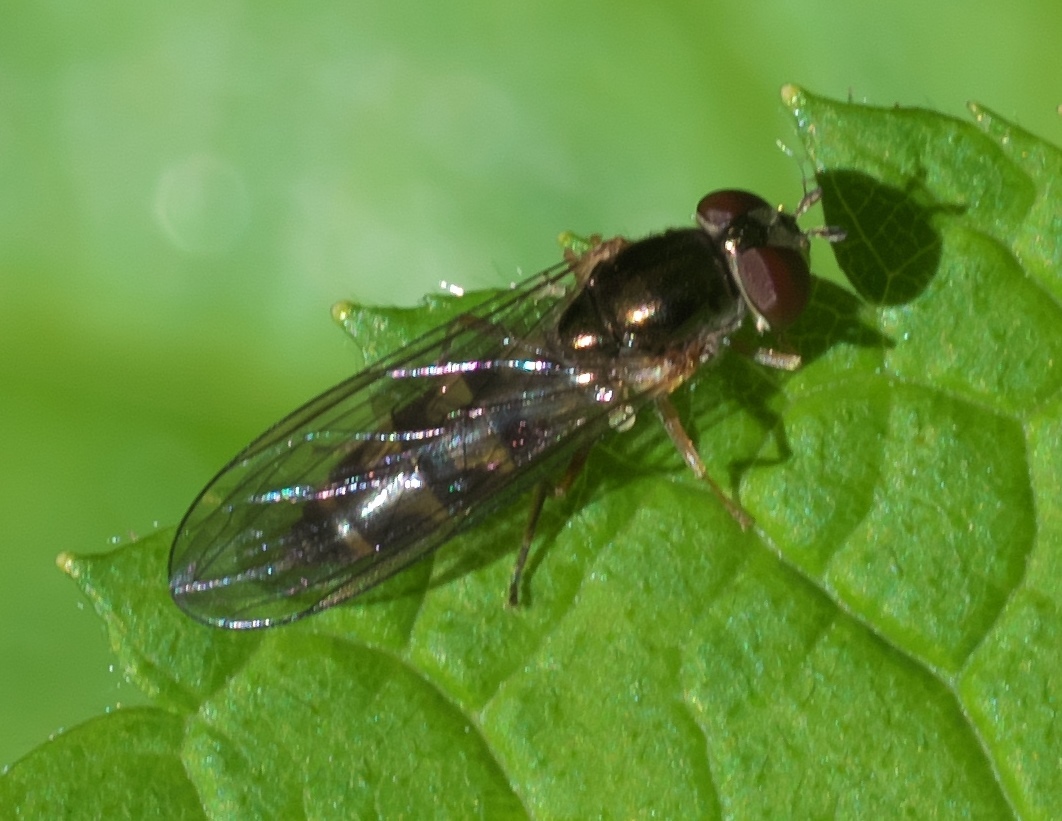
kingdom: Animalia
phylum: Arthropoda
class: Insecta
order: Diptera
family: Syrphidae
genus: Melanostoma
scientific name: Melanostoma mellina
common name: Hover fly
